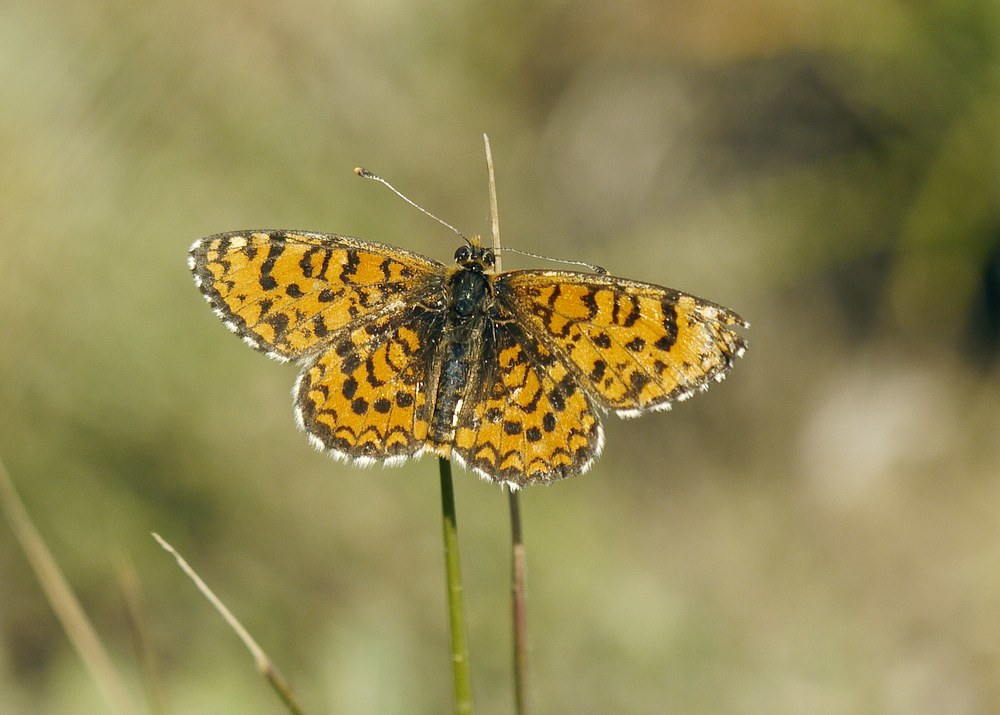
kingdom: Animalia
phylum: Arthropoda
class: Insecta
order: Lepidoptera
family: Nymphalidae
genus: Melitaea
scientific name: Melitaea trivia
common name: Lesser spotted fritillary
